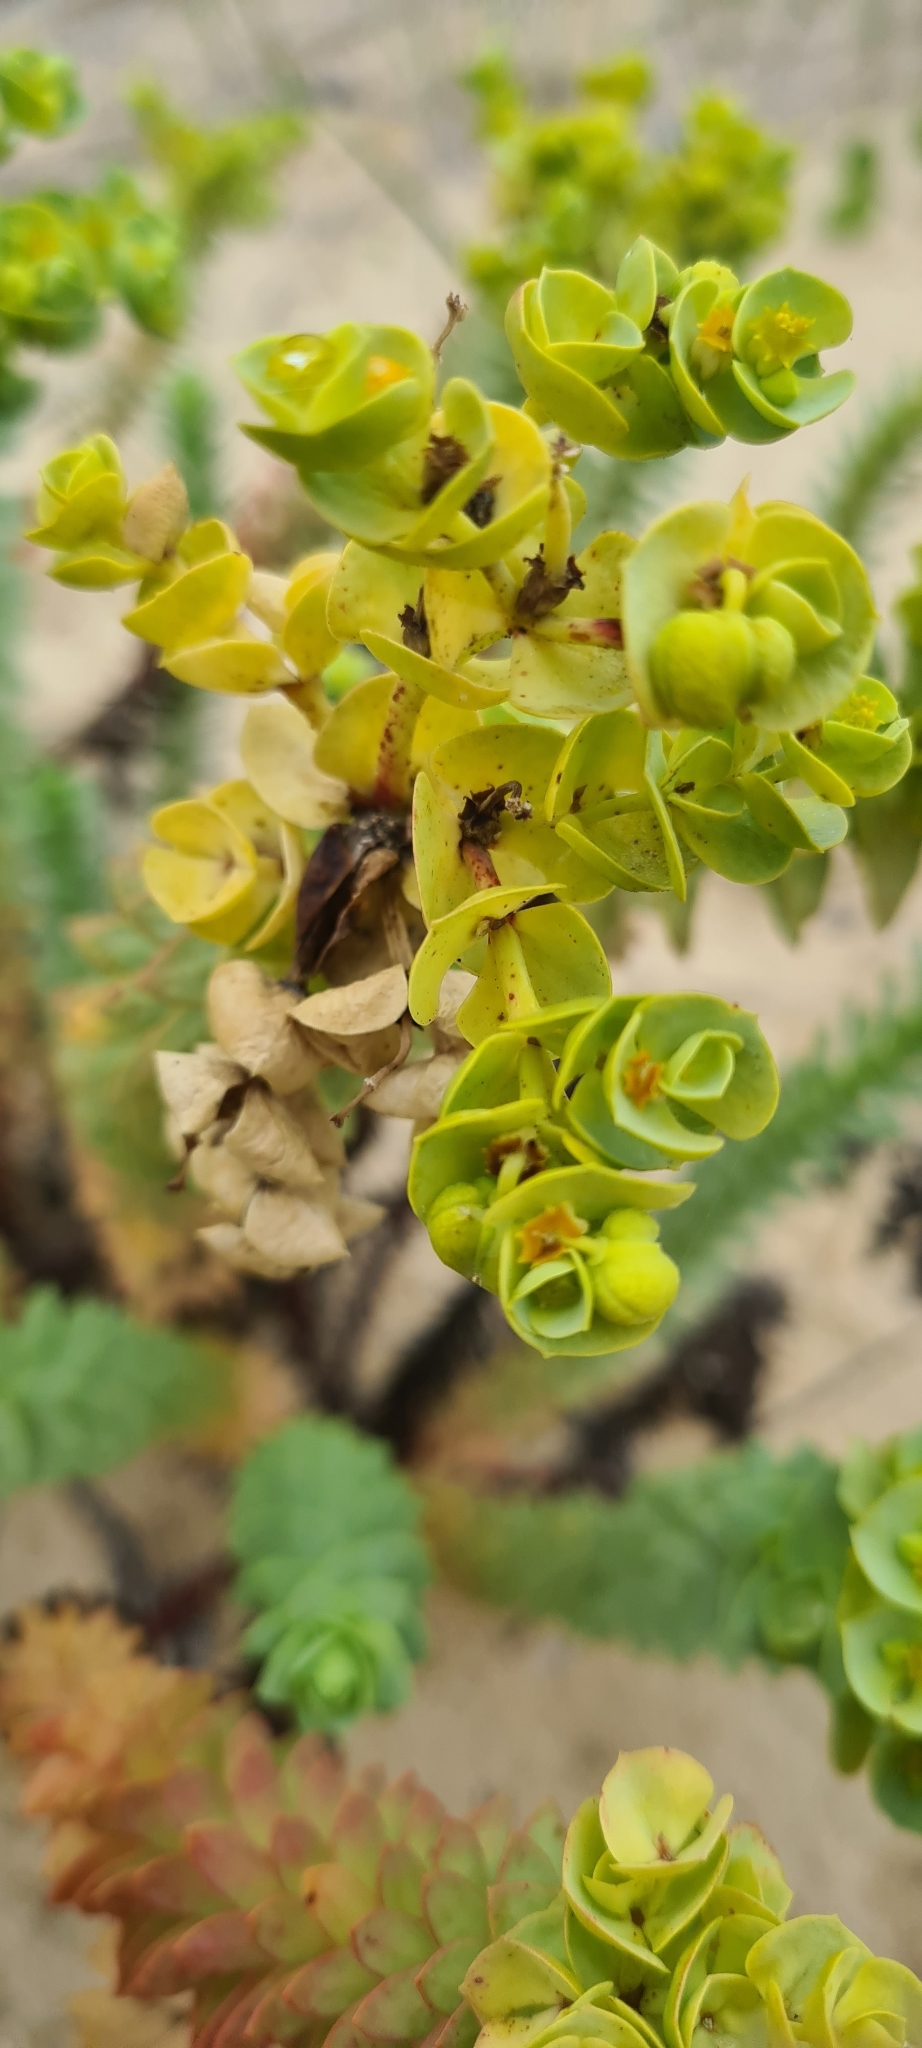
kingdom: Plantae
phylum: Tracheophyta
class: Magnoliopsida
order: Malpighiales
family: Euphorbiaceae
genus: Euphorbia
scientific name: Euphorbia paralias
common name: Sea spurge
